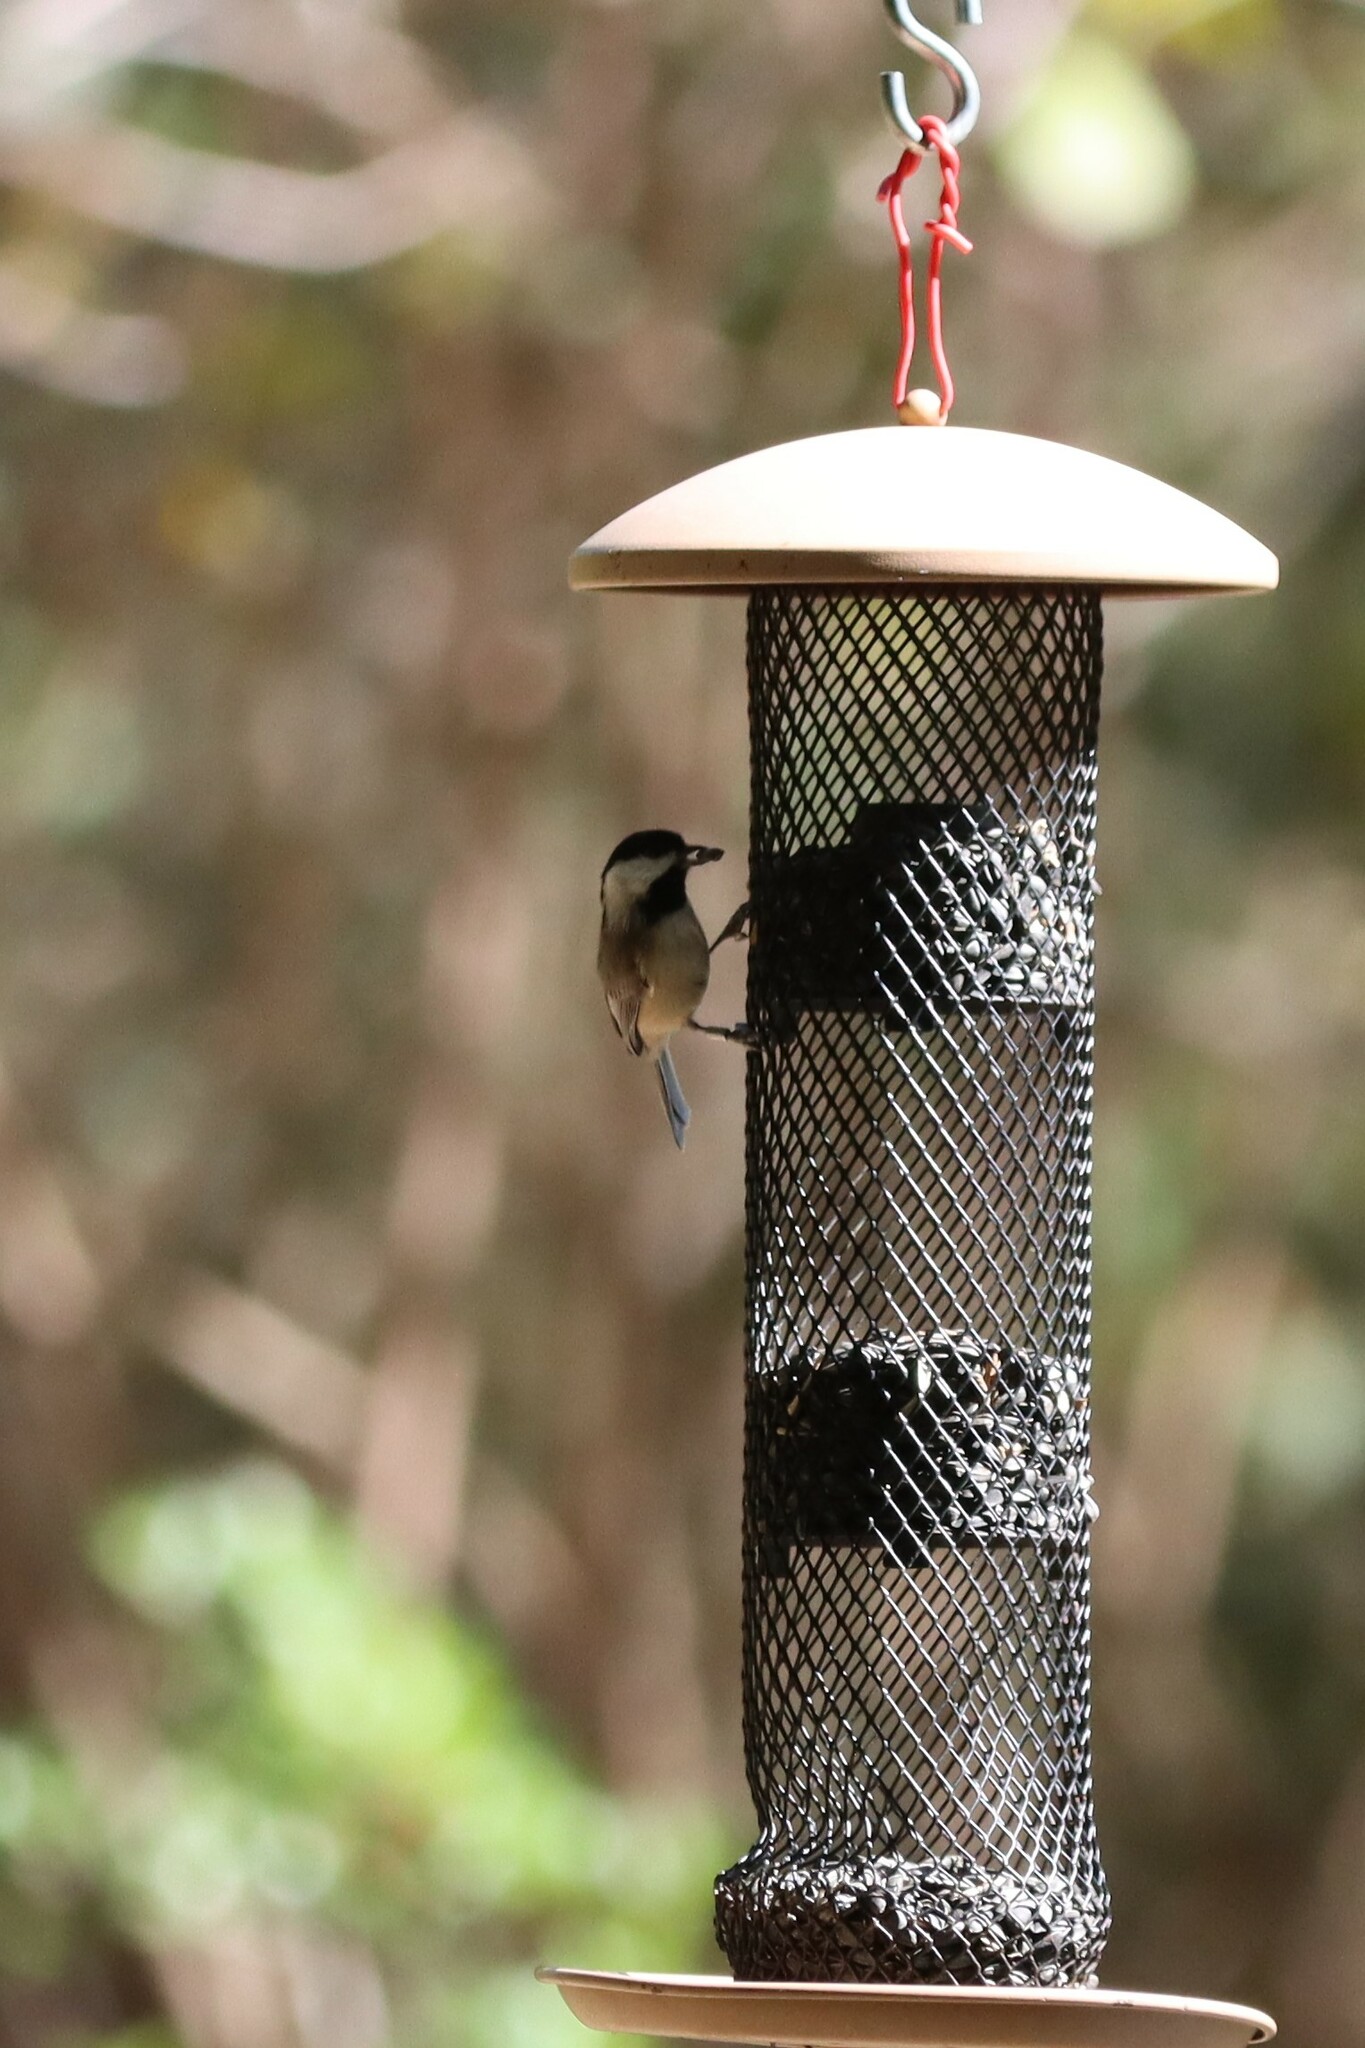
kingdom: Animalia
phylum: Chordata
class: Aves
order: Passeriformes
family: Paridae
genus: Poecile
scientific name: Poecile carolinensis
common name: Carolina chickadee
